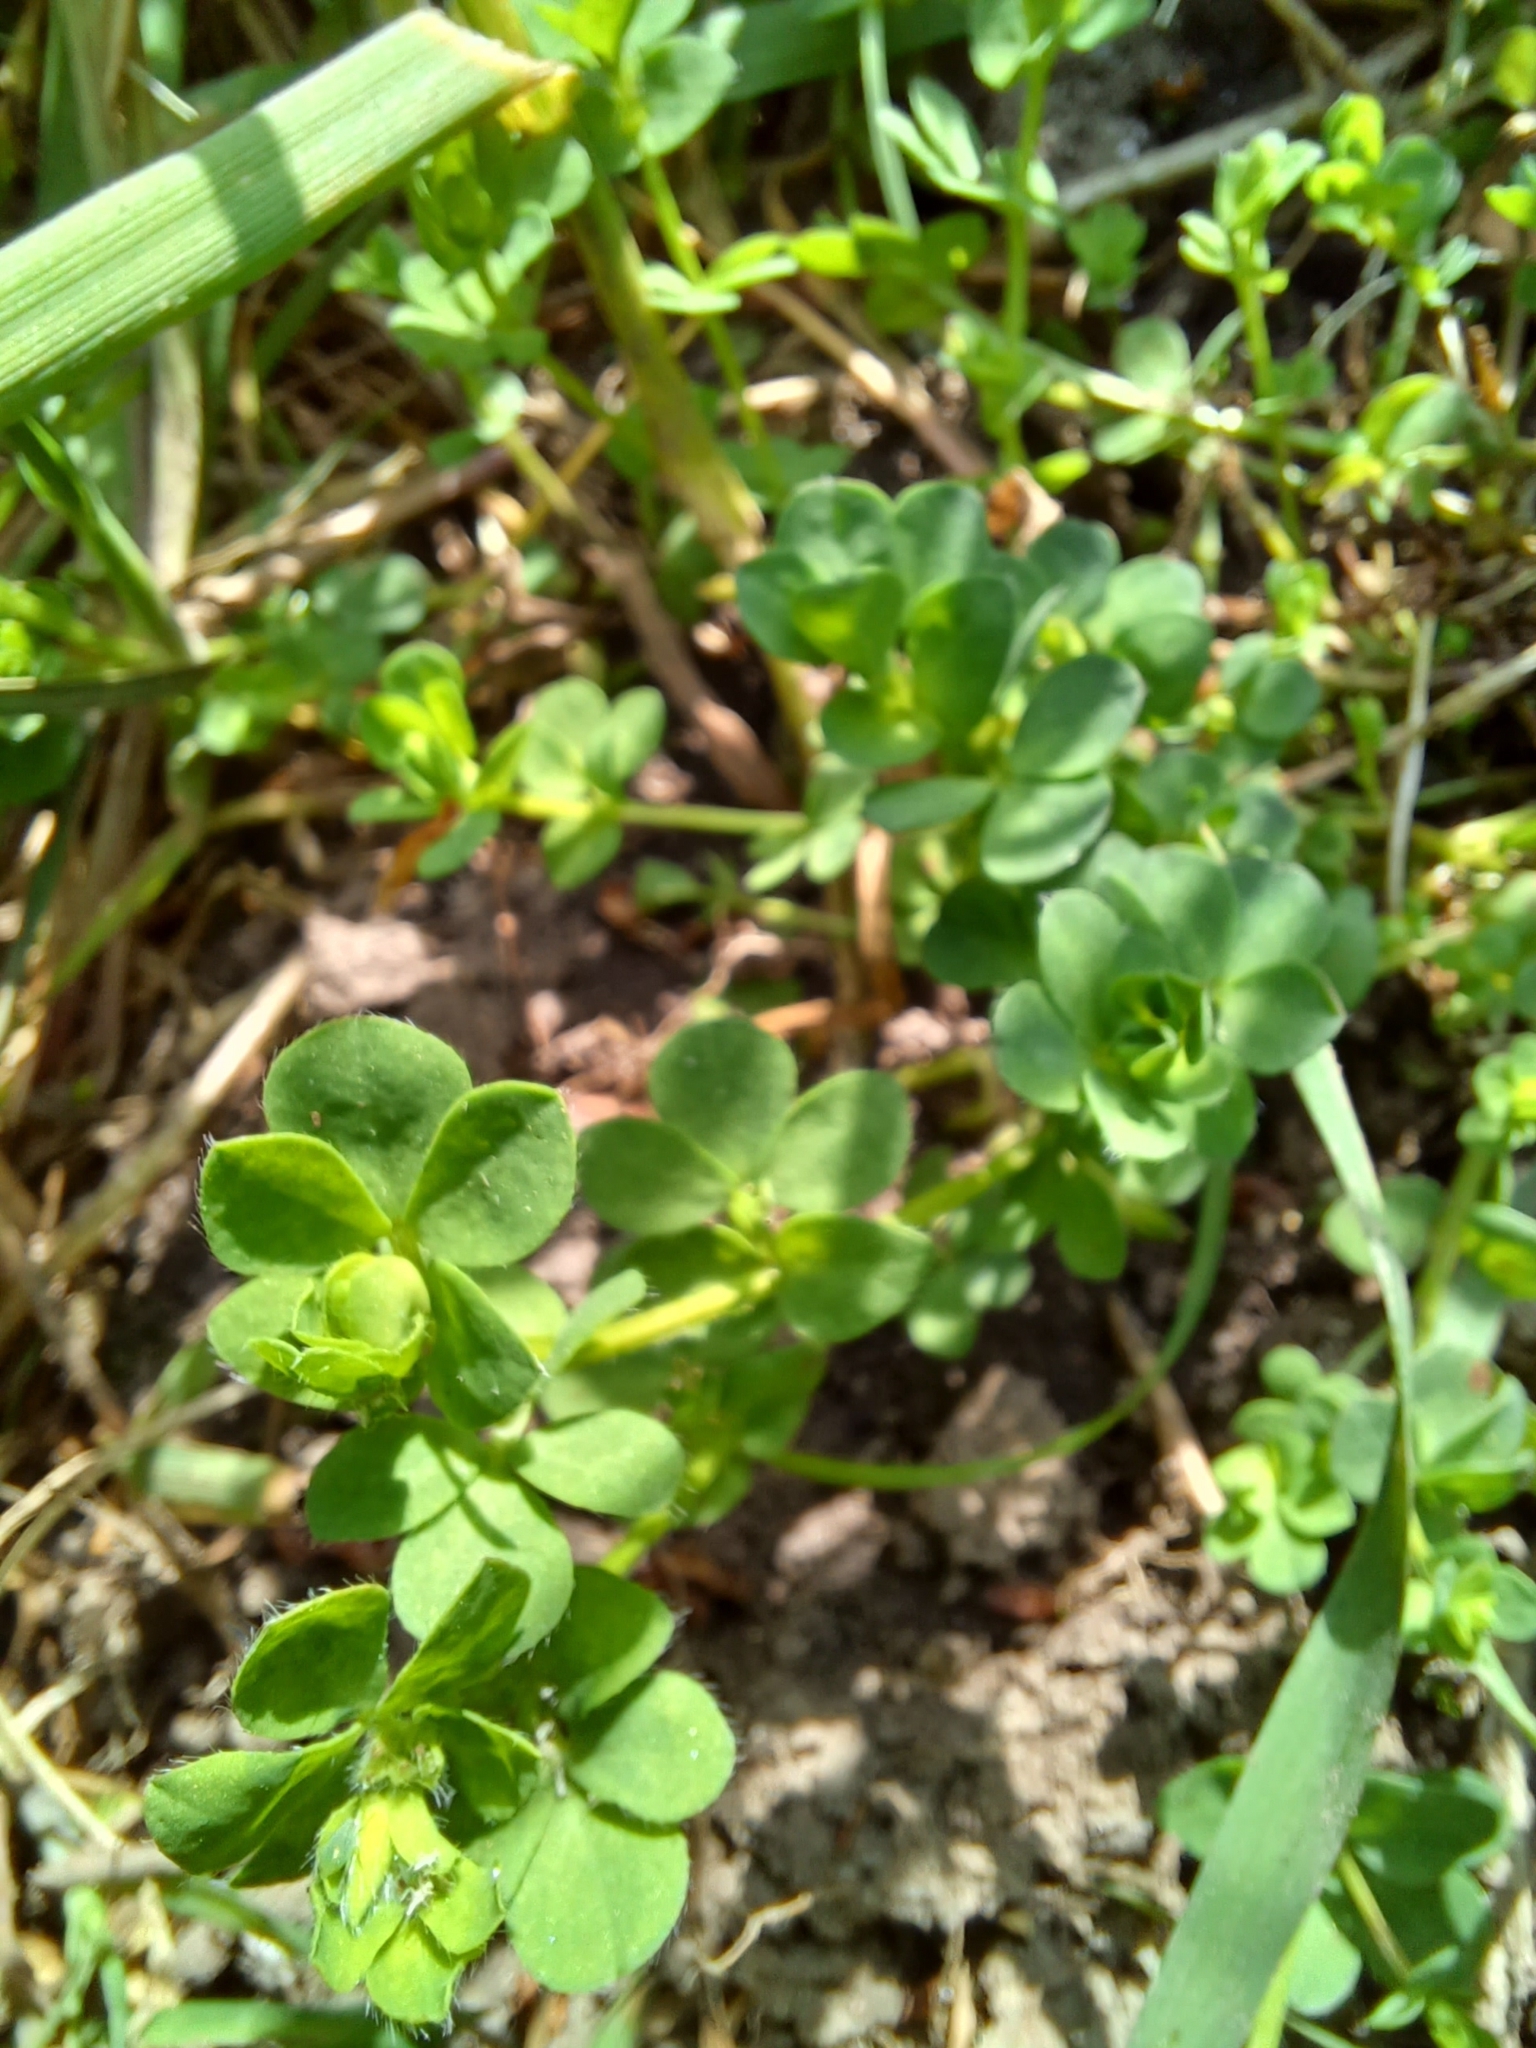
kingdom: Plantae
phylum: Tracheophyta
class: Magnoliopsida
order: Fabales
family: Fabaceae
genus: Lotus
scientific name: Lotus corniculatus
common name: Common bird's-foot-trefoil
